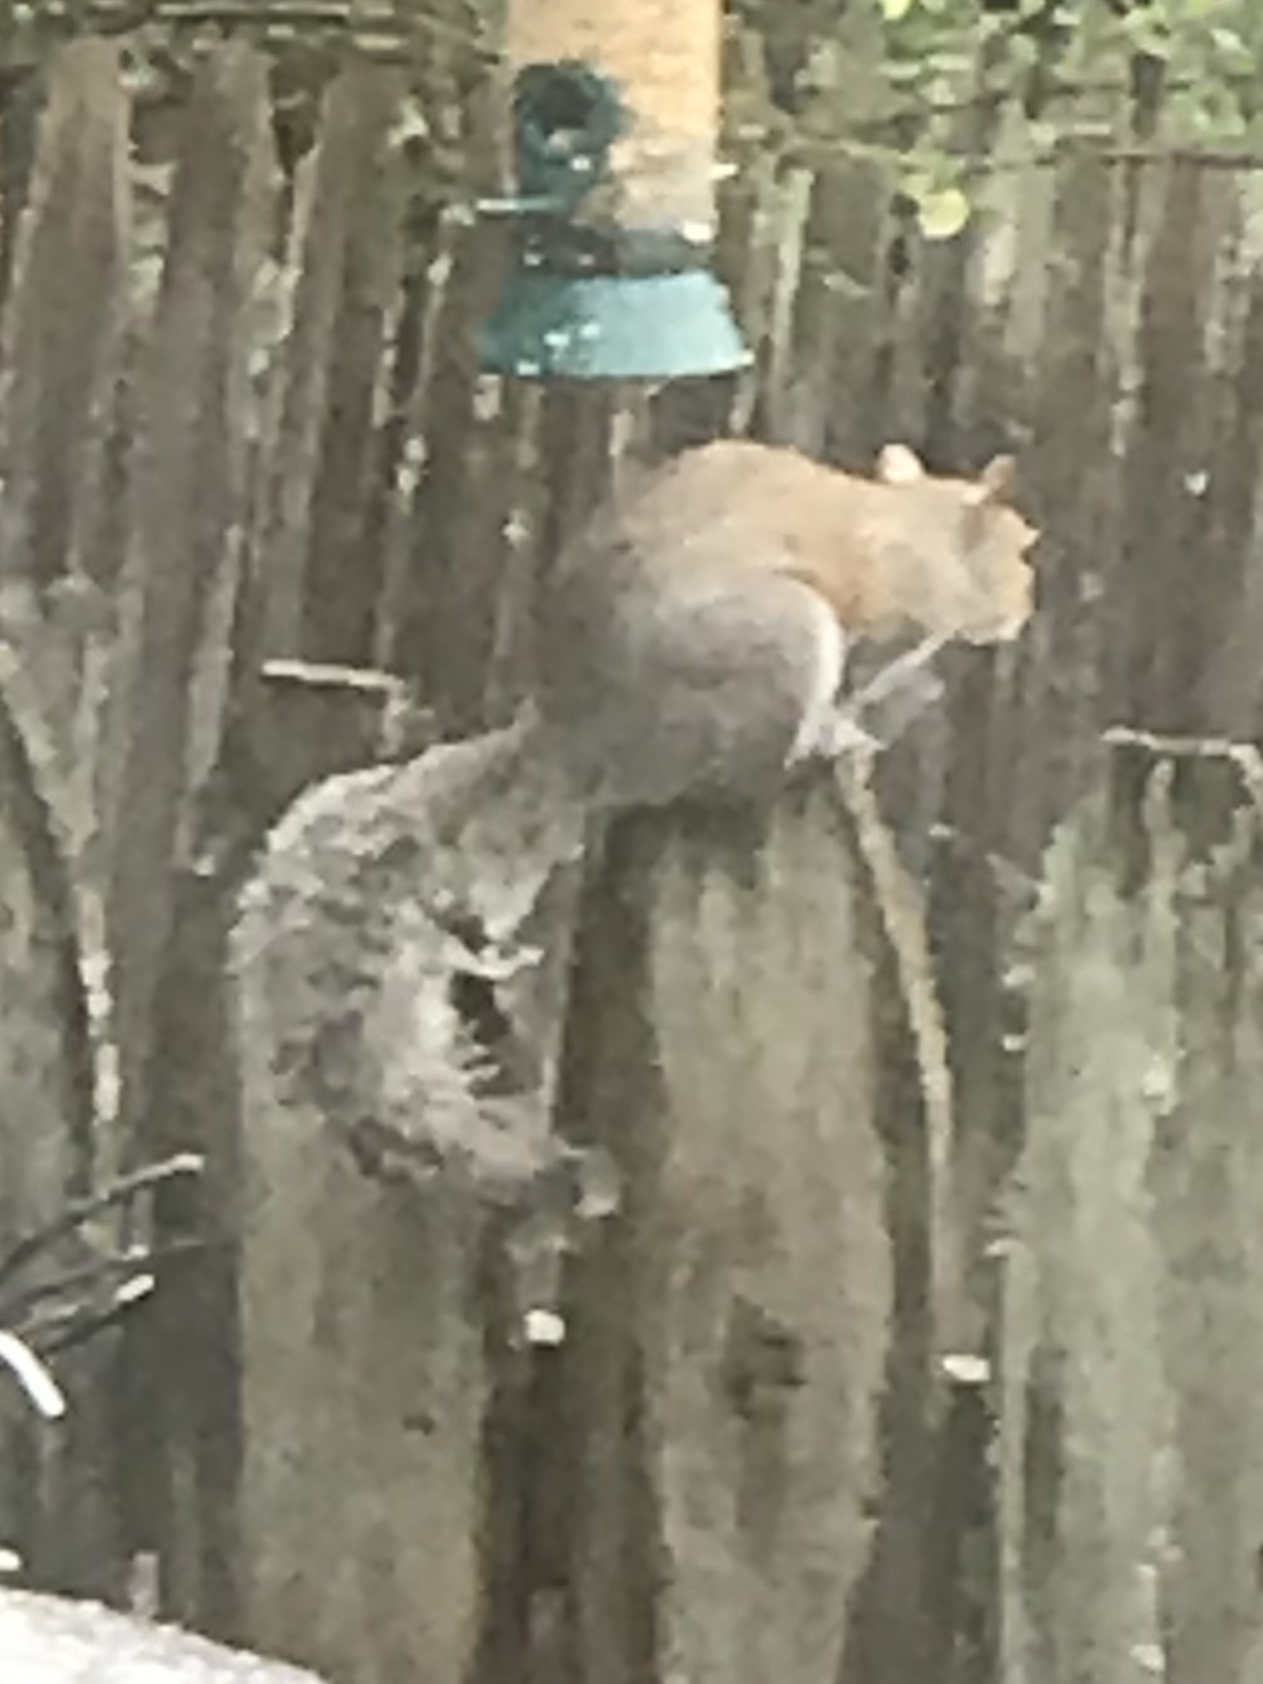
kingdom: Animalia
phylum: Chordata
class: Mammalia
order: Rodentia
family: Sciuridae
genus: Sciurus
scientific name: Sciurus carolinensis
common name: Eastern gray squirrel
